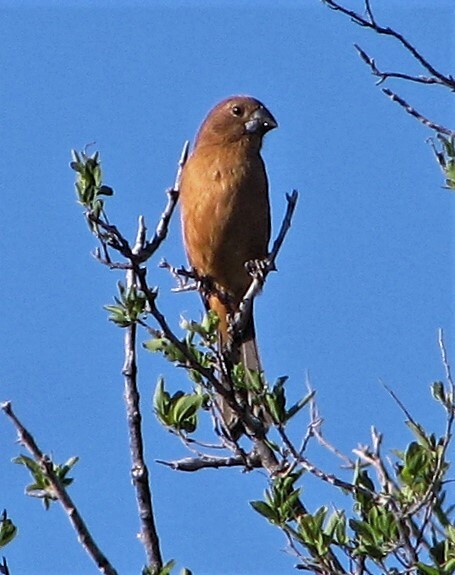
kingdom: Animalia
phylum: Chordata
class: Aves
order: Passeriformes
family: Cardinalidae
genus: Cyanoloxia
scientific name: Cyanoloxia brissonii
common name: Ultramarine grosbeak
